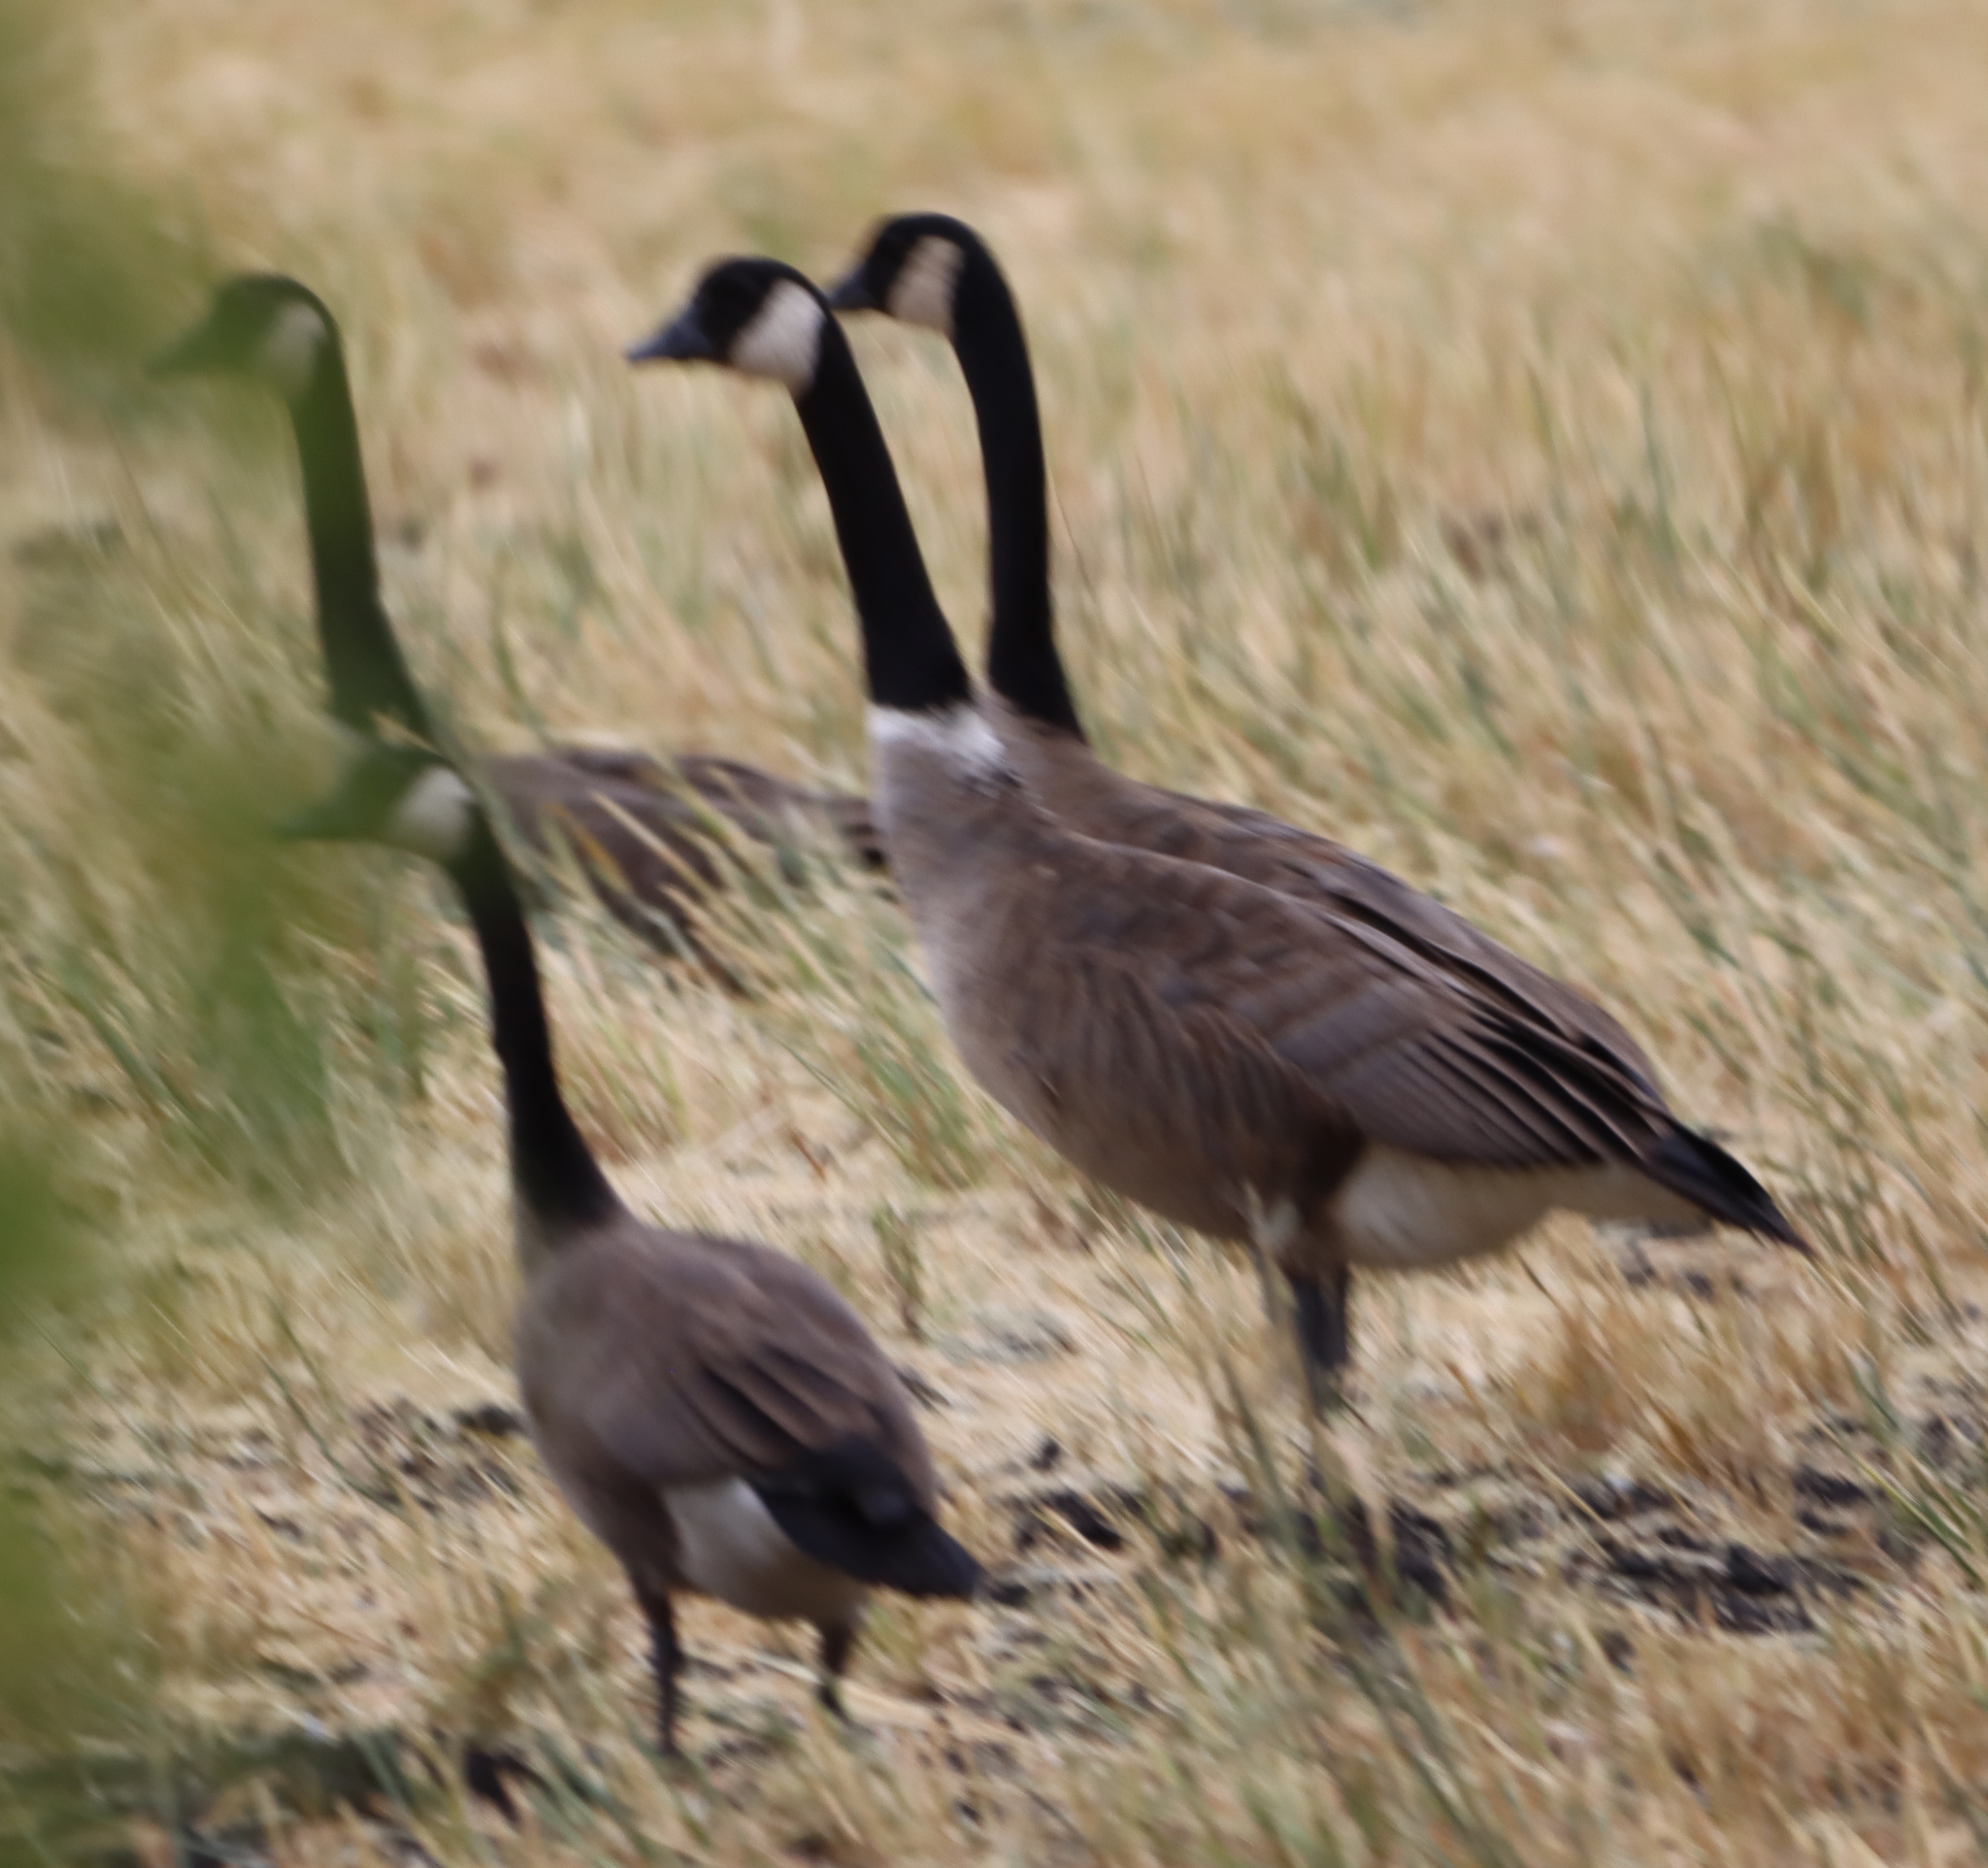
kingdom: Animalia
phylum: Chordata
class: Aves
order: Anseriformes
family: Anatidae
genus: Branta
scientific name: Branta canadensis
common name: Canada goose
